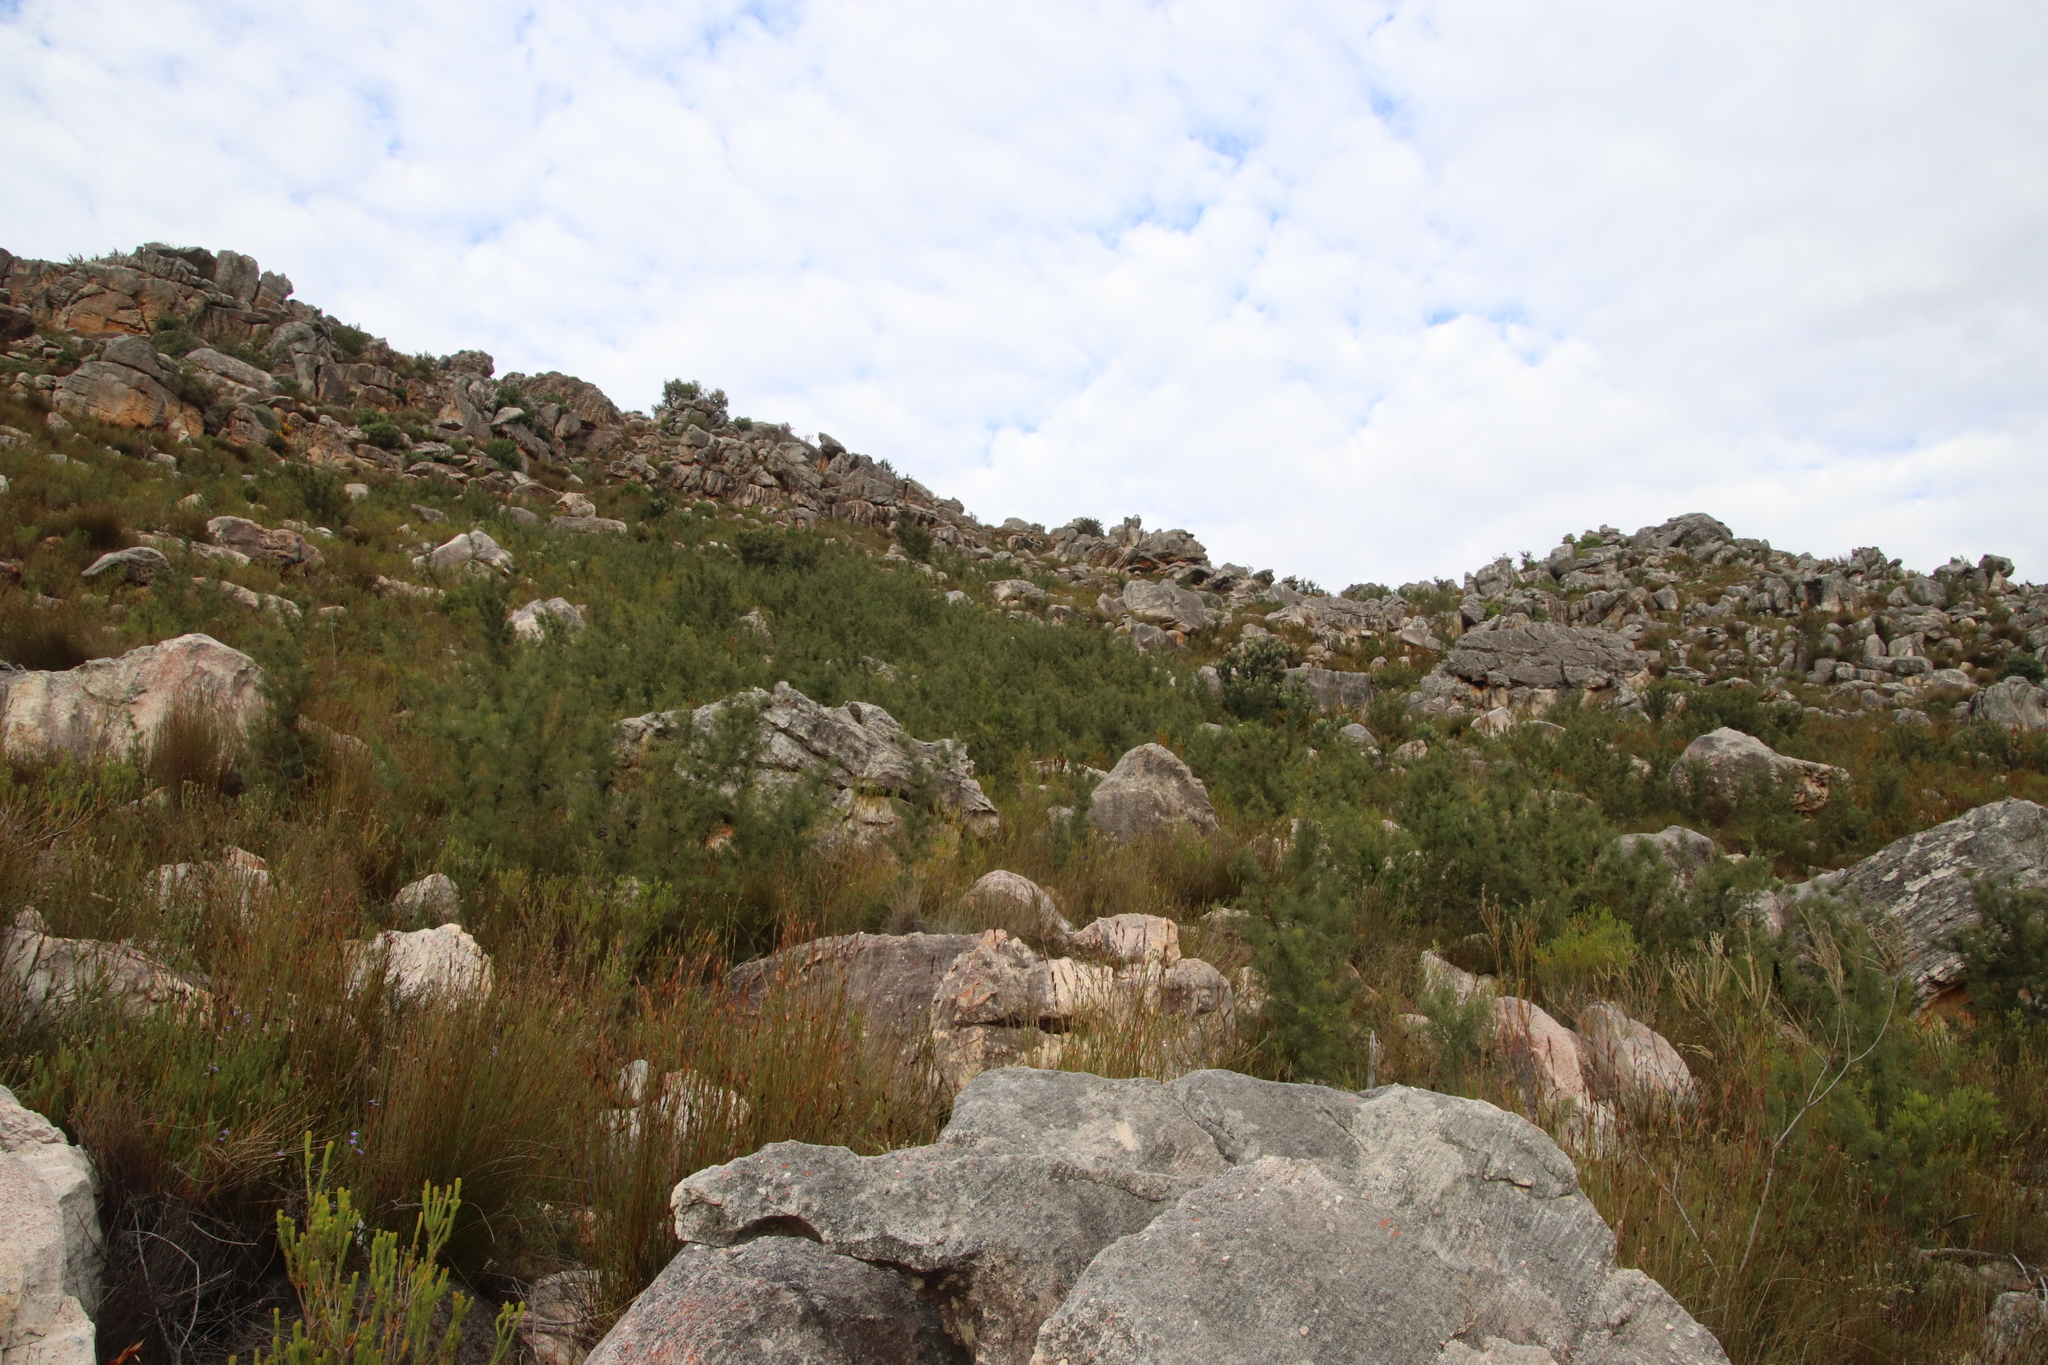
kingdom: Plantae
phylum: Tracheophyta
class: Magnoliopsida
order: Proteales
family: Proteaceae
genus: Hakea
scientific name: Hakea sericea
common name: Needle bush
